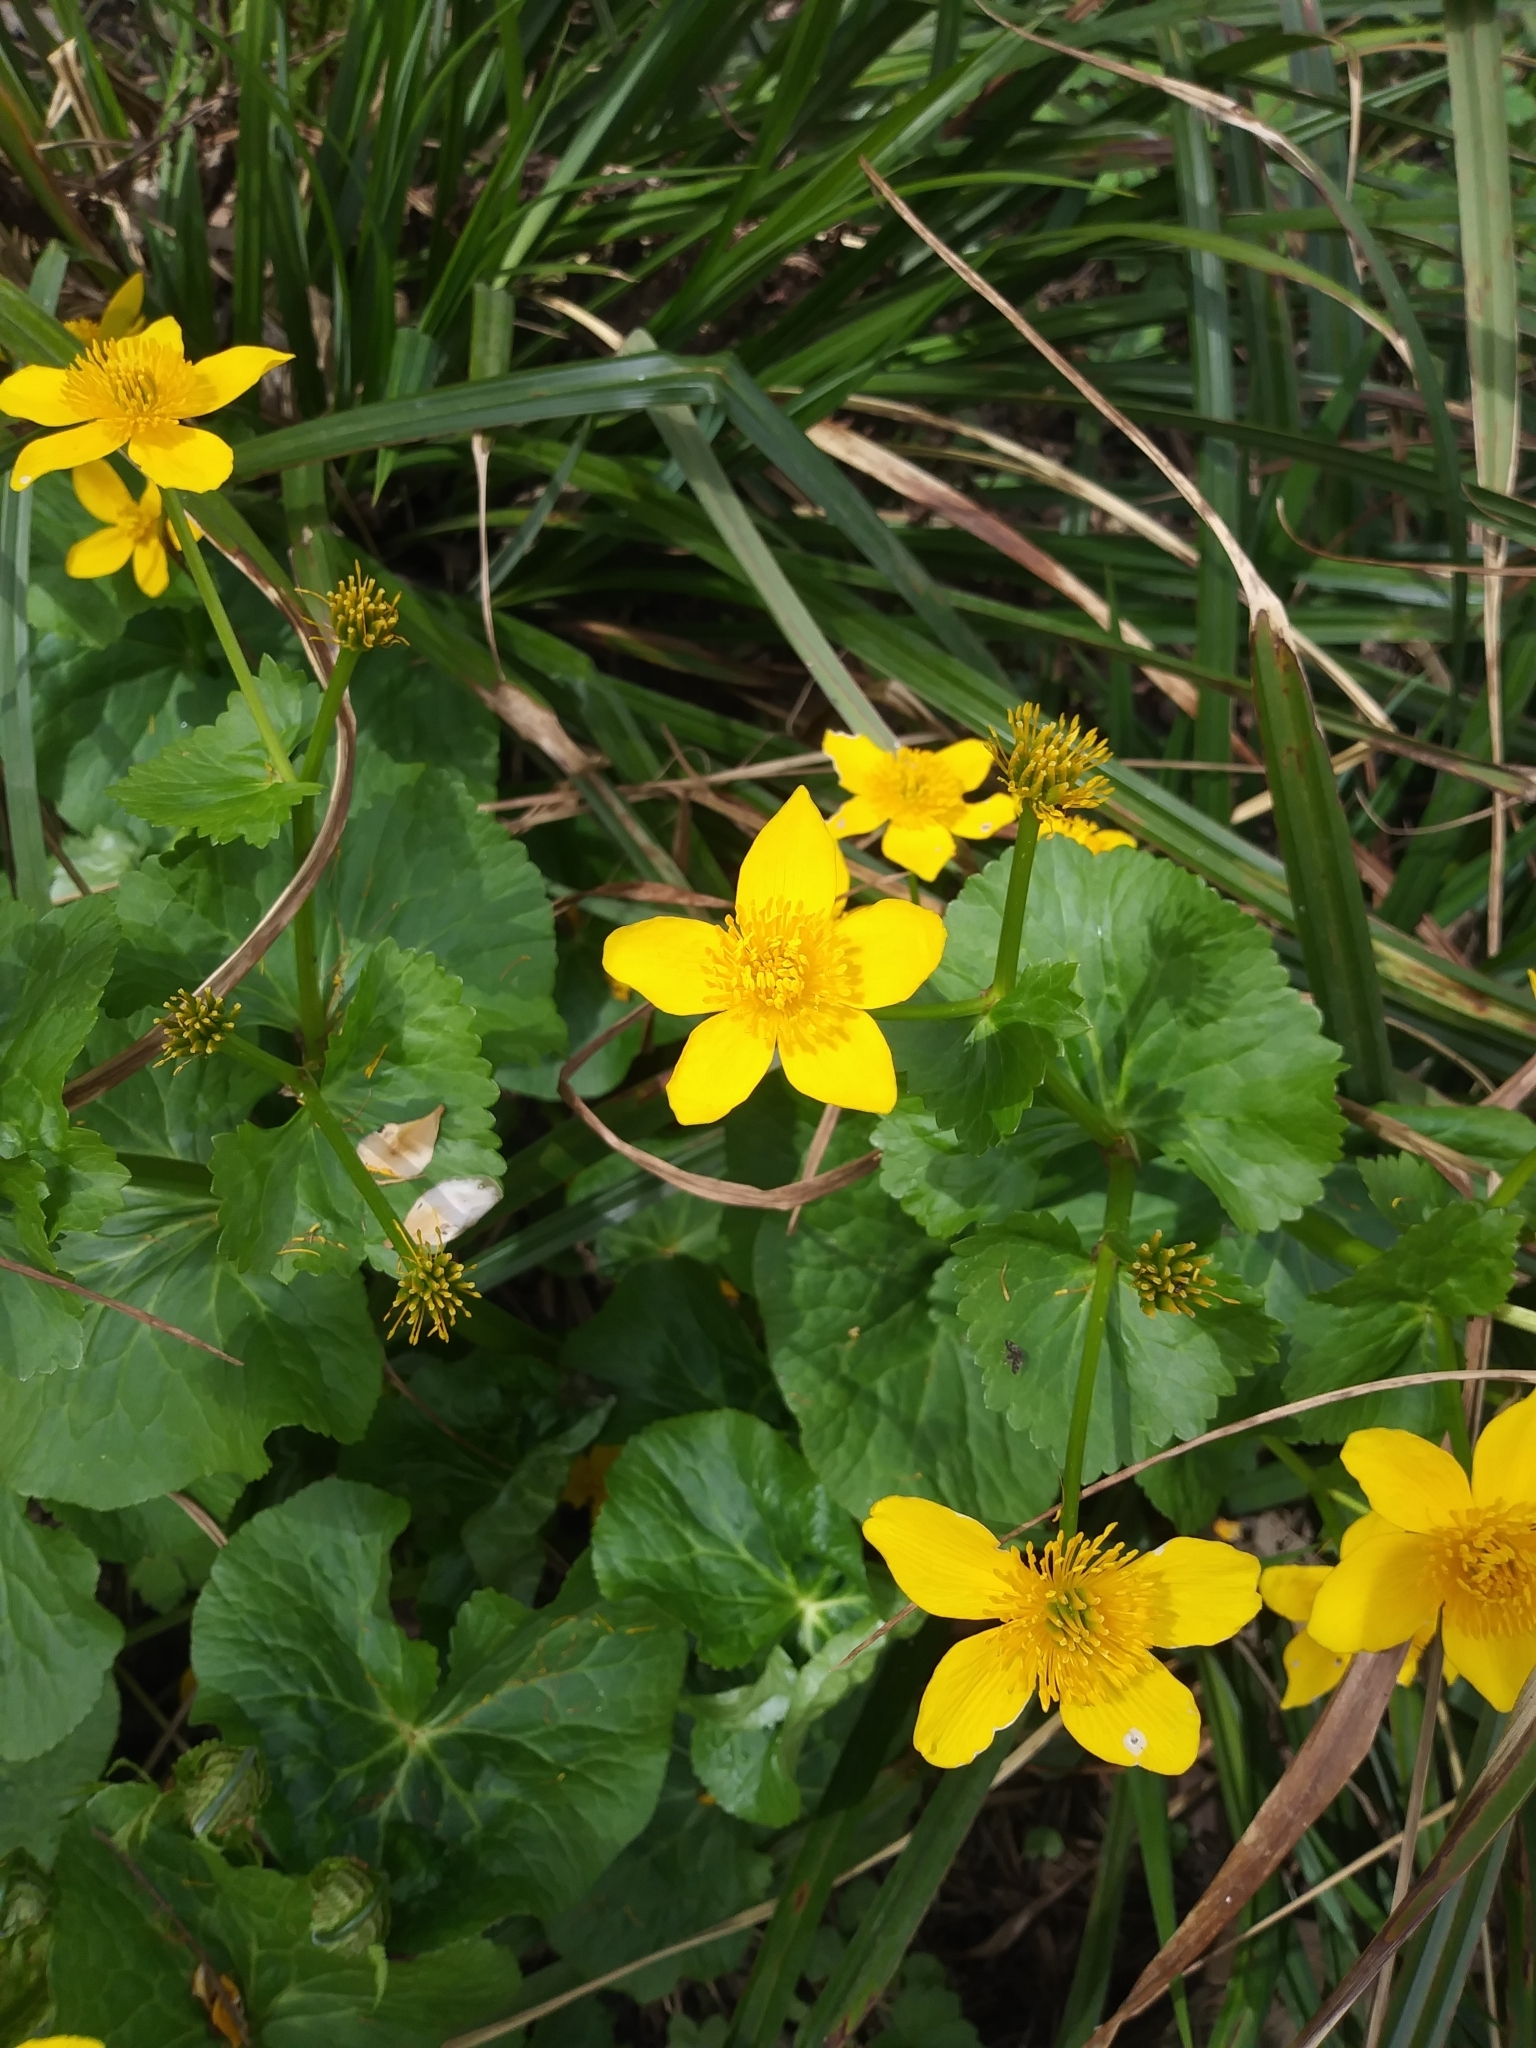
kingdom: Plantae
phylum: Tracheophyta
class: Magnoliopsida
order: Ranunculales
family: Ranunculaceae
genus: Caltha
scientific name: Caltha palustris
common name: Marsh marigold
